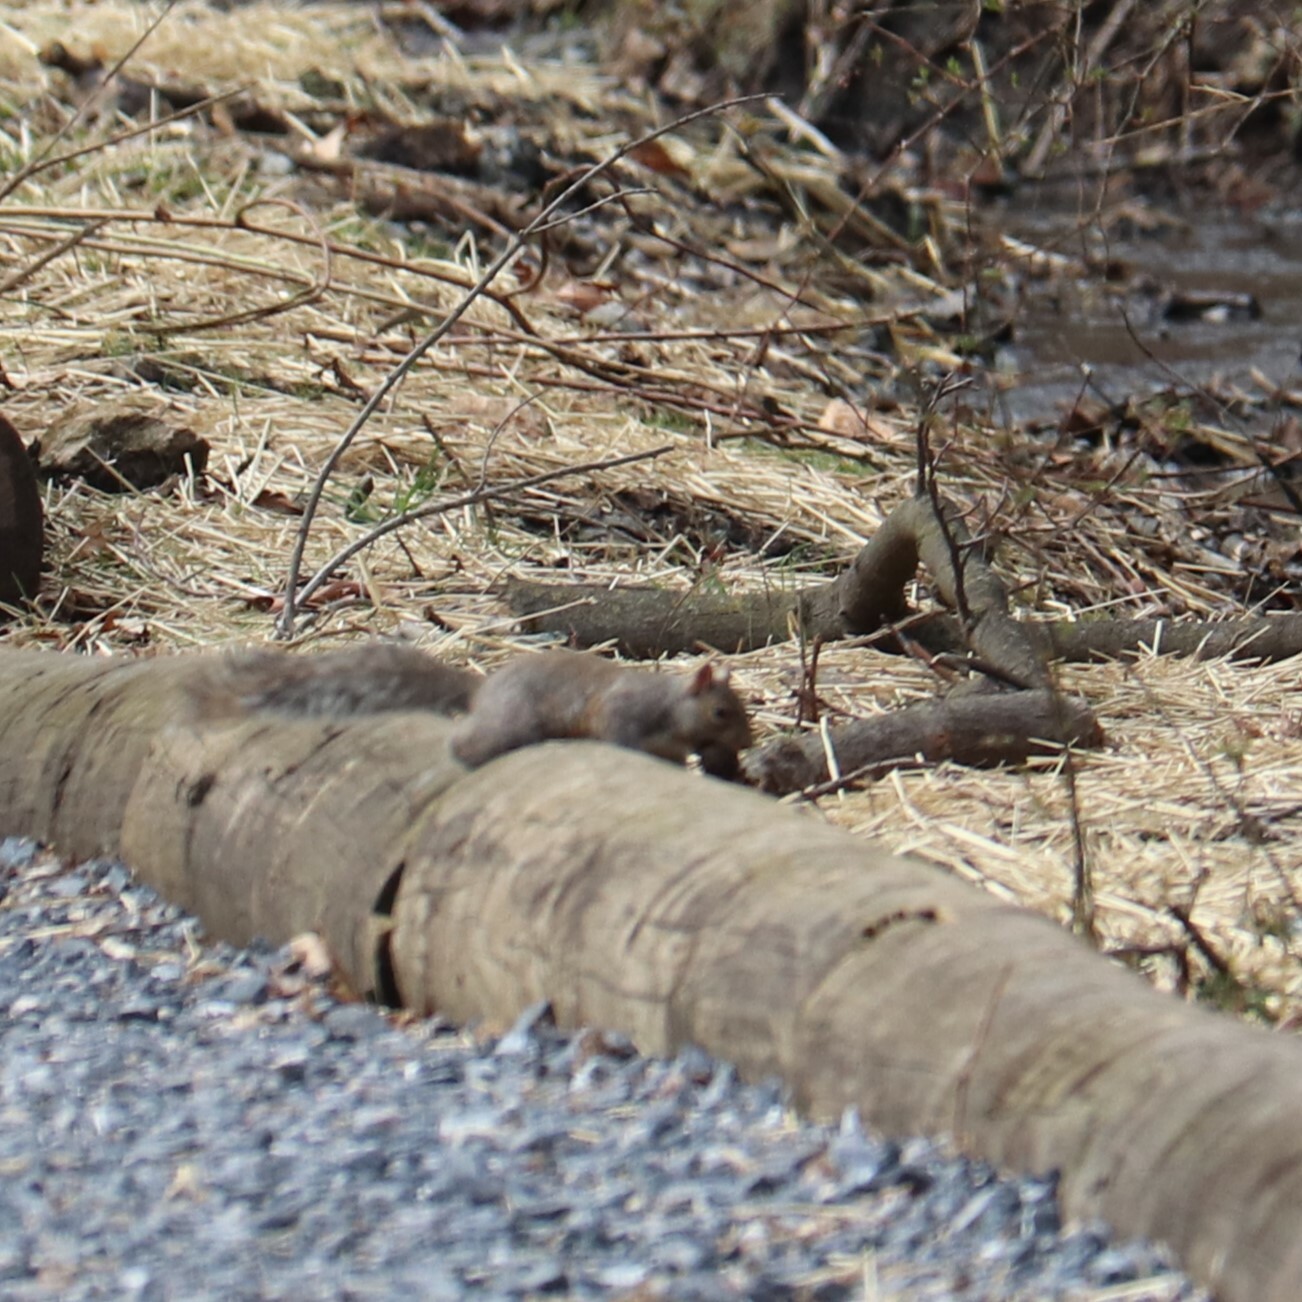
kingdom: Animalia
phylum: Chordata
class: Mammalia
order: Rodentia
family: Sciuridae
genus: Sciurus
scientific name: Sciurus carolinensis
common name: Eastern gray squirrel
